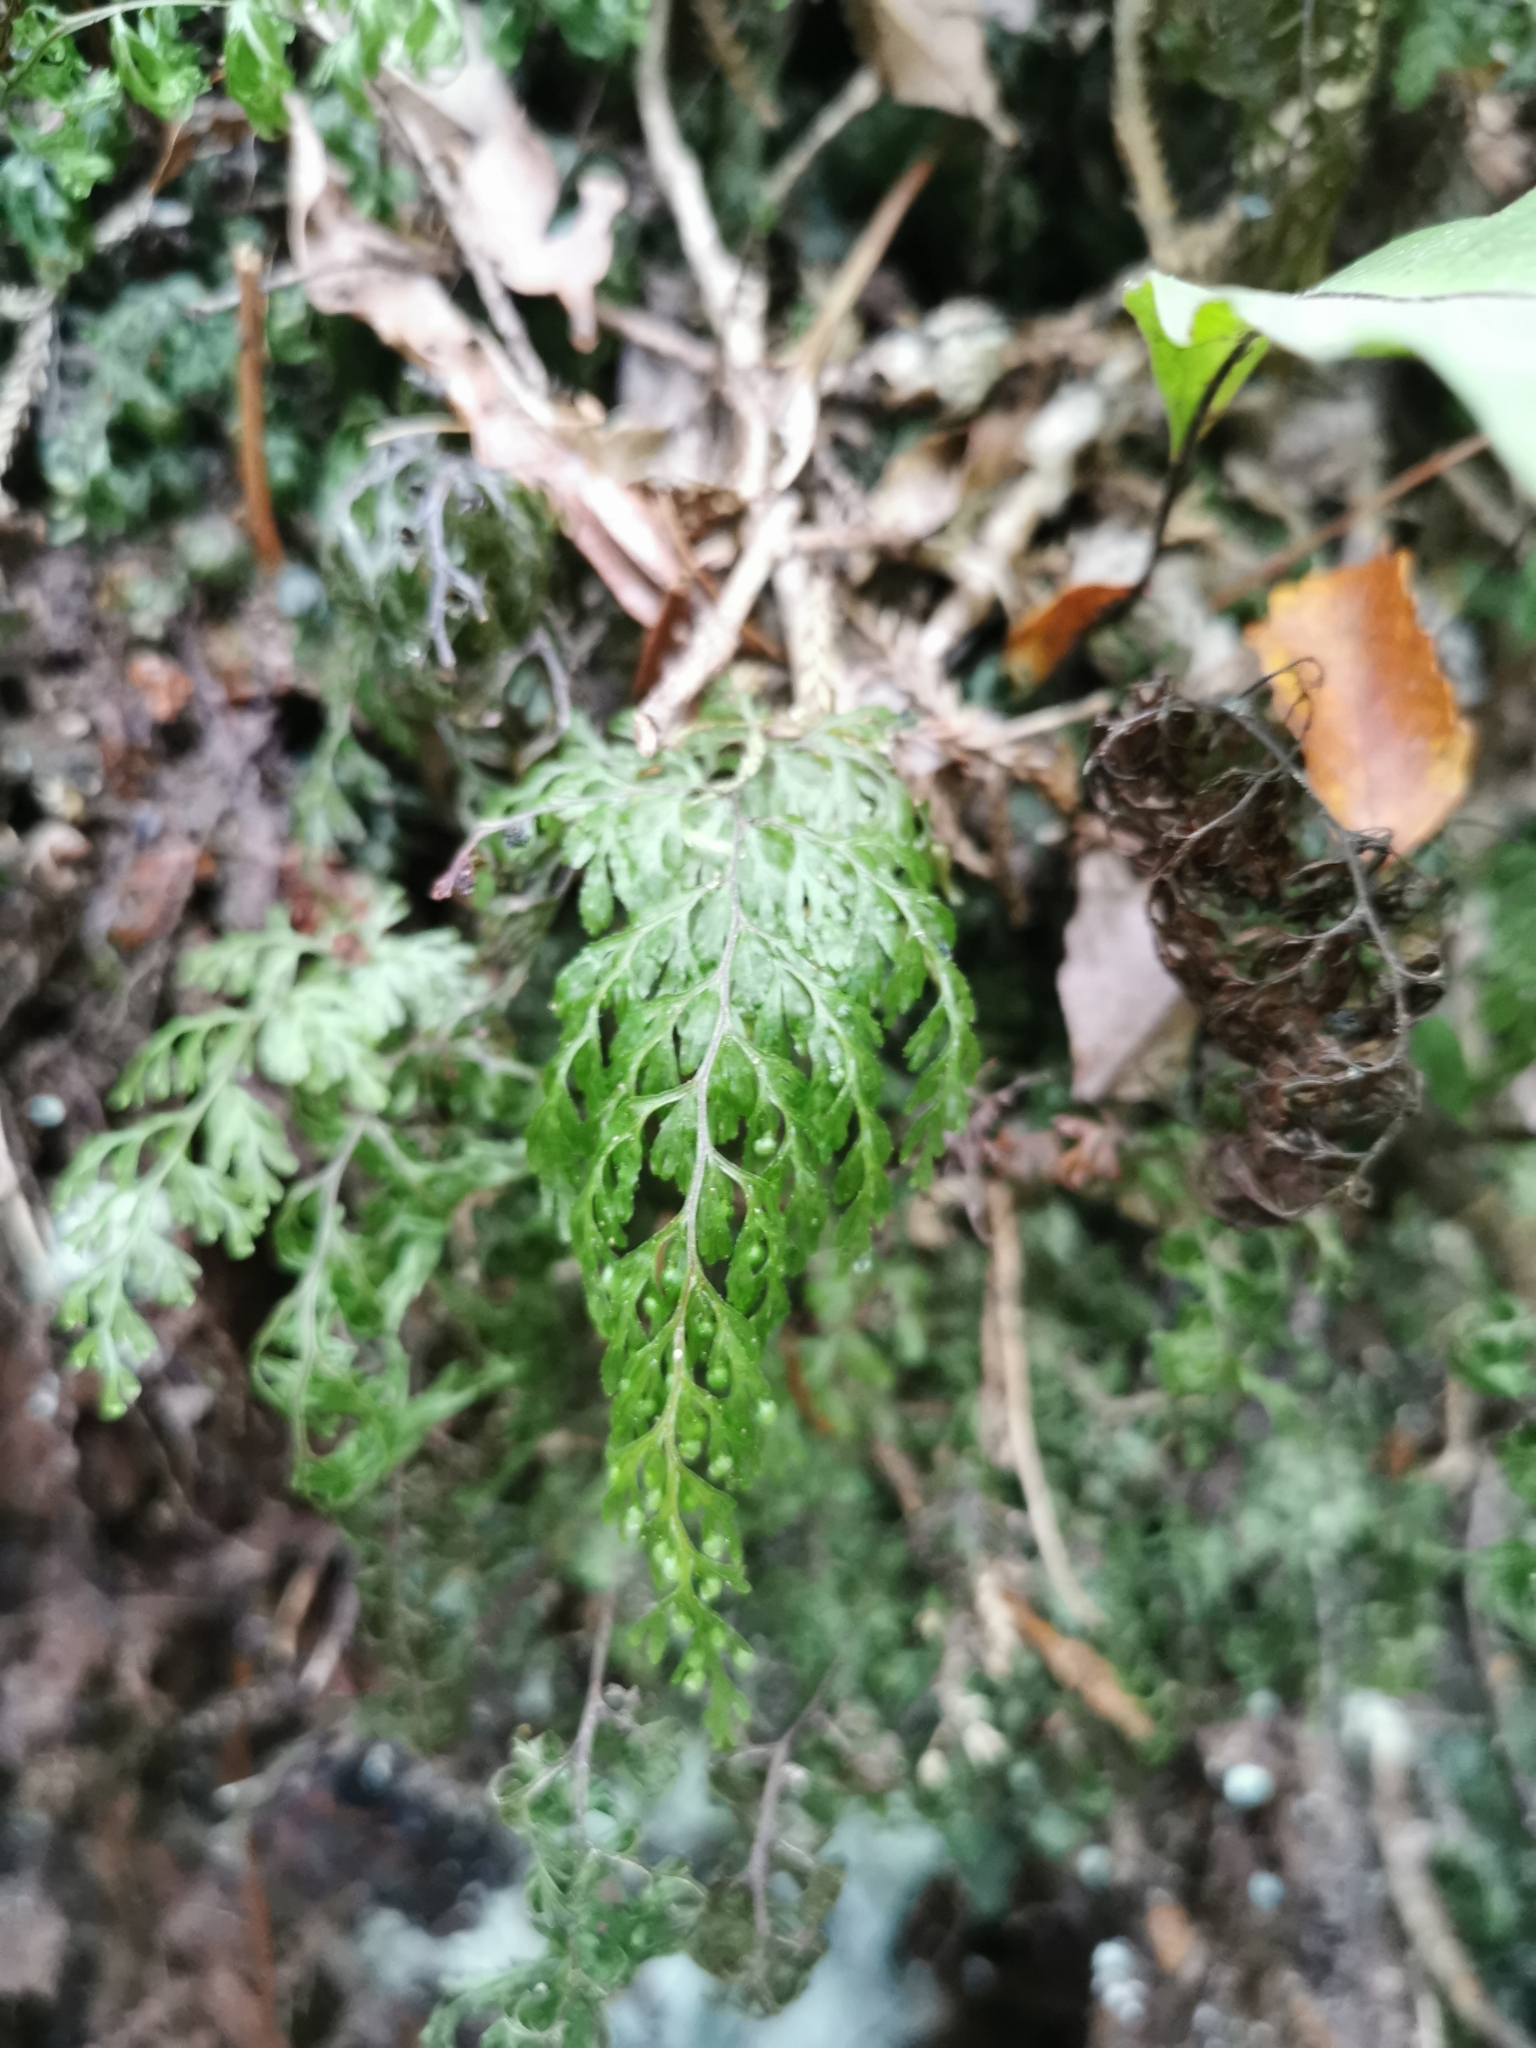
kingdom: Plantae
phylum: Tracheophyta
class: Polypodiopsida
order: Hymenophyllales
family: Hymenophyllaceae
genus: Hymenophyllum
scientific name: Hymenophyllum bivalve
